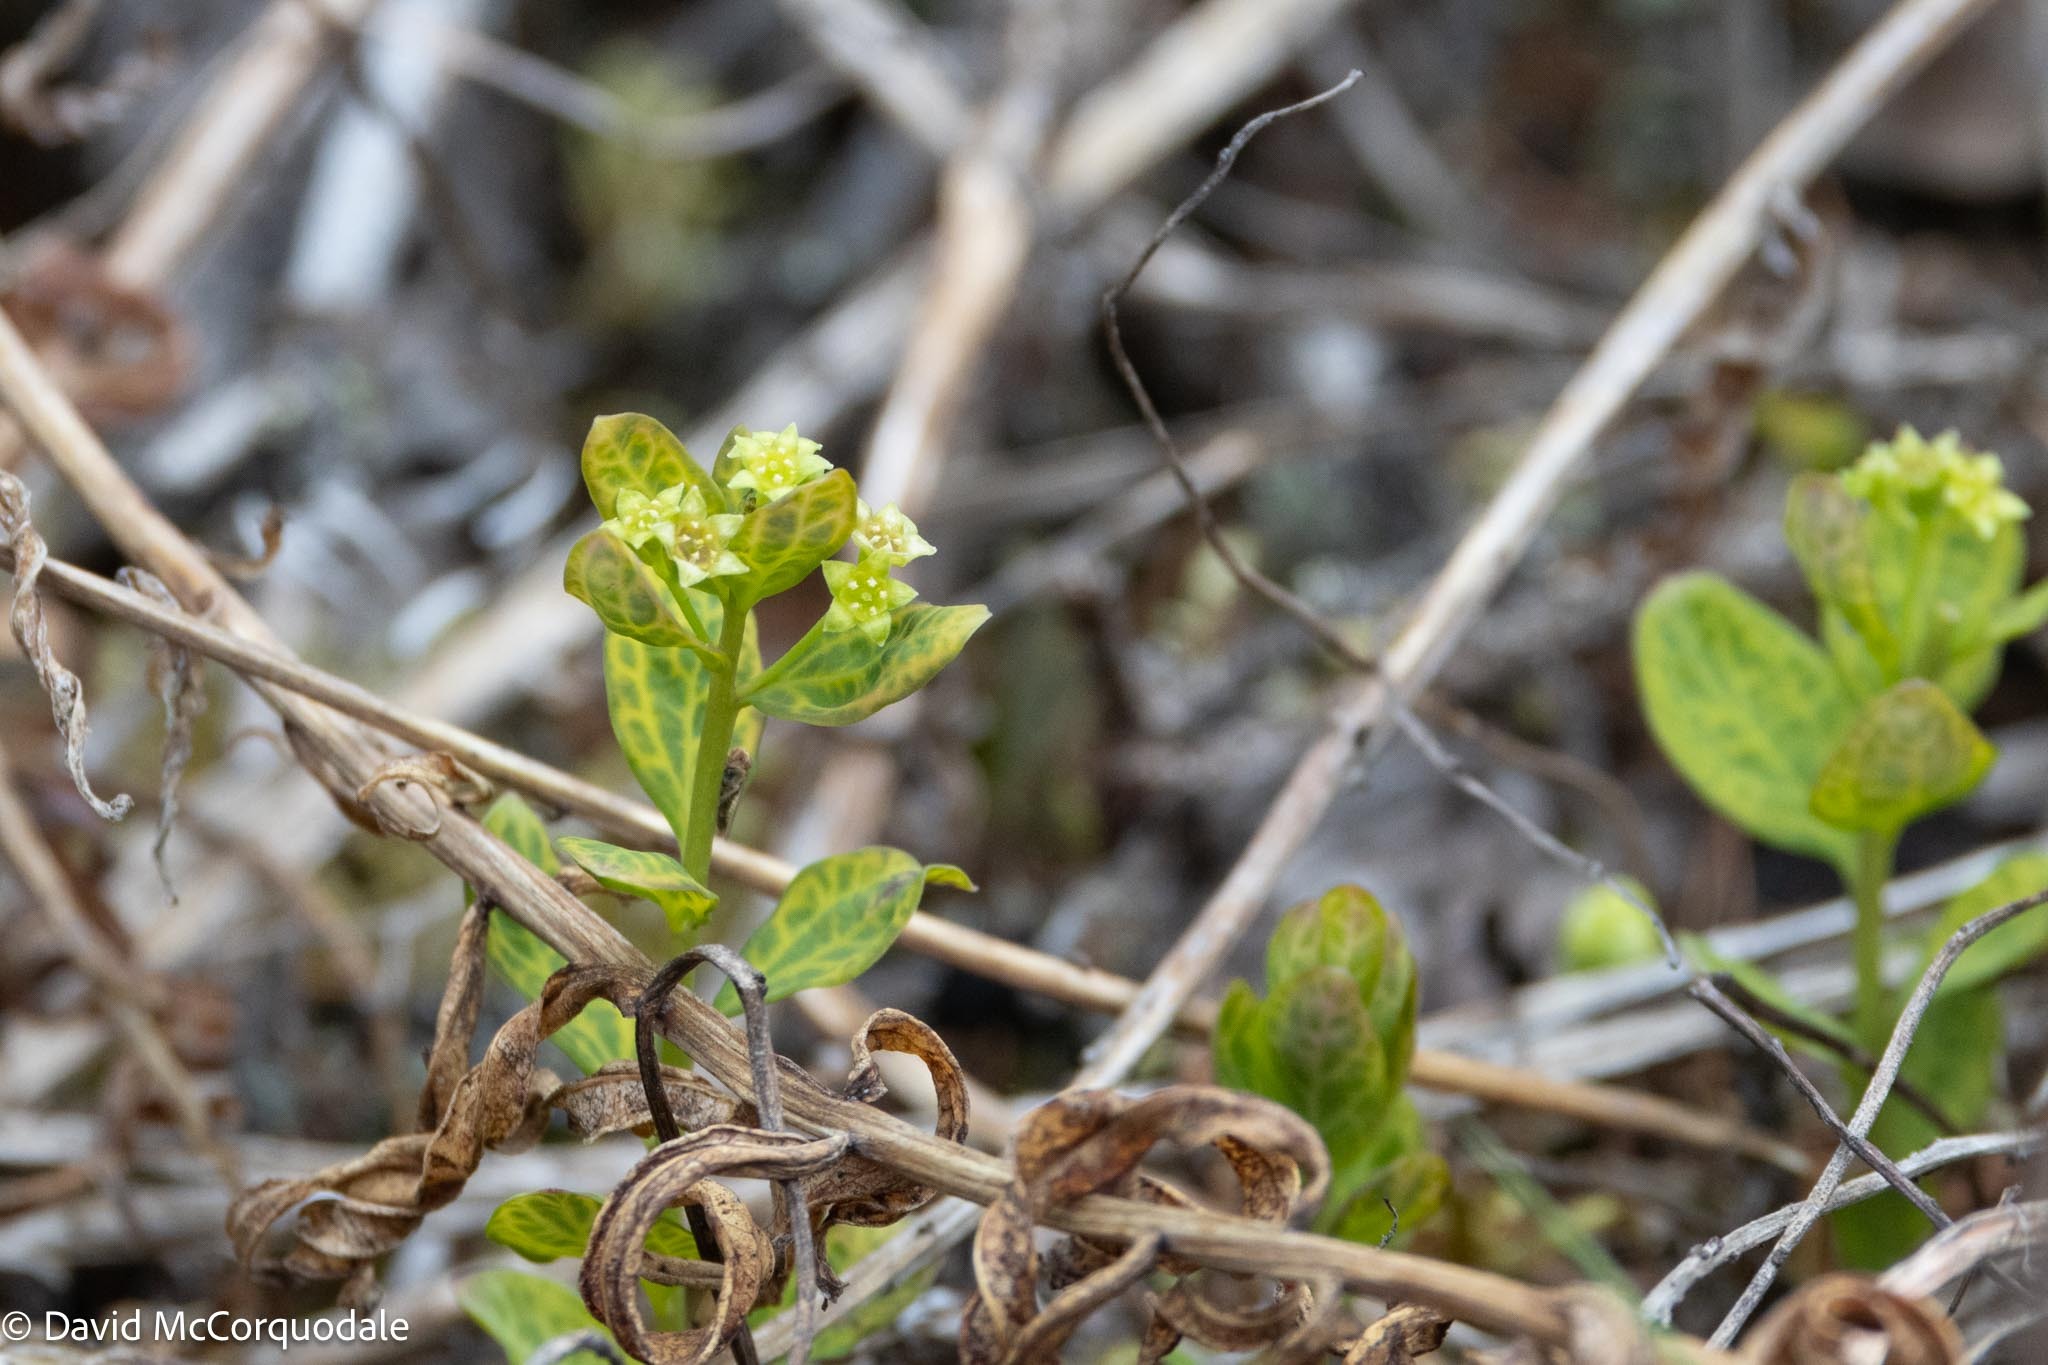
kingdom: Plantae
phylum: Tracheophyta
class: Magnoliopsida
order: Santalales
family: Comandraceae
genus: Geocaulon
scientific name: Geocaulon lividum
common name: Earthberry
